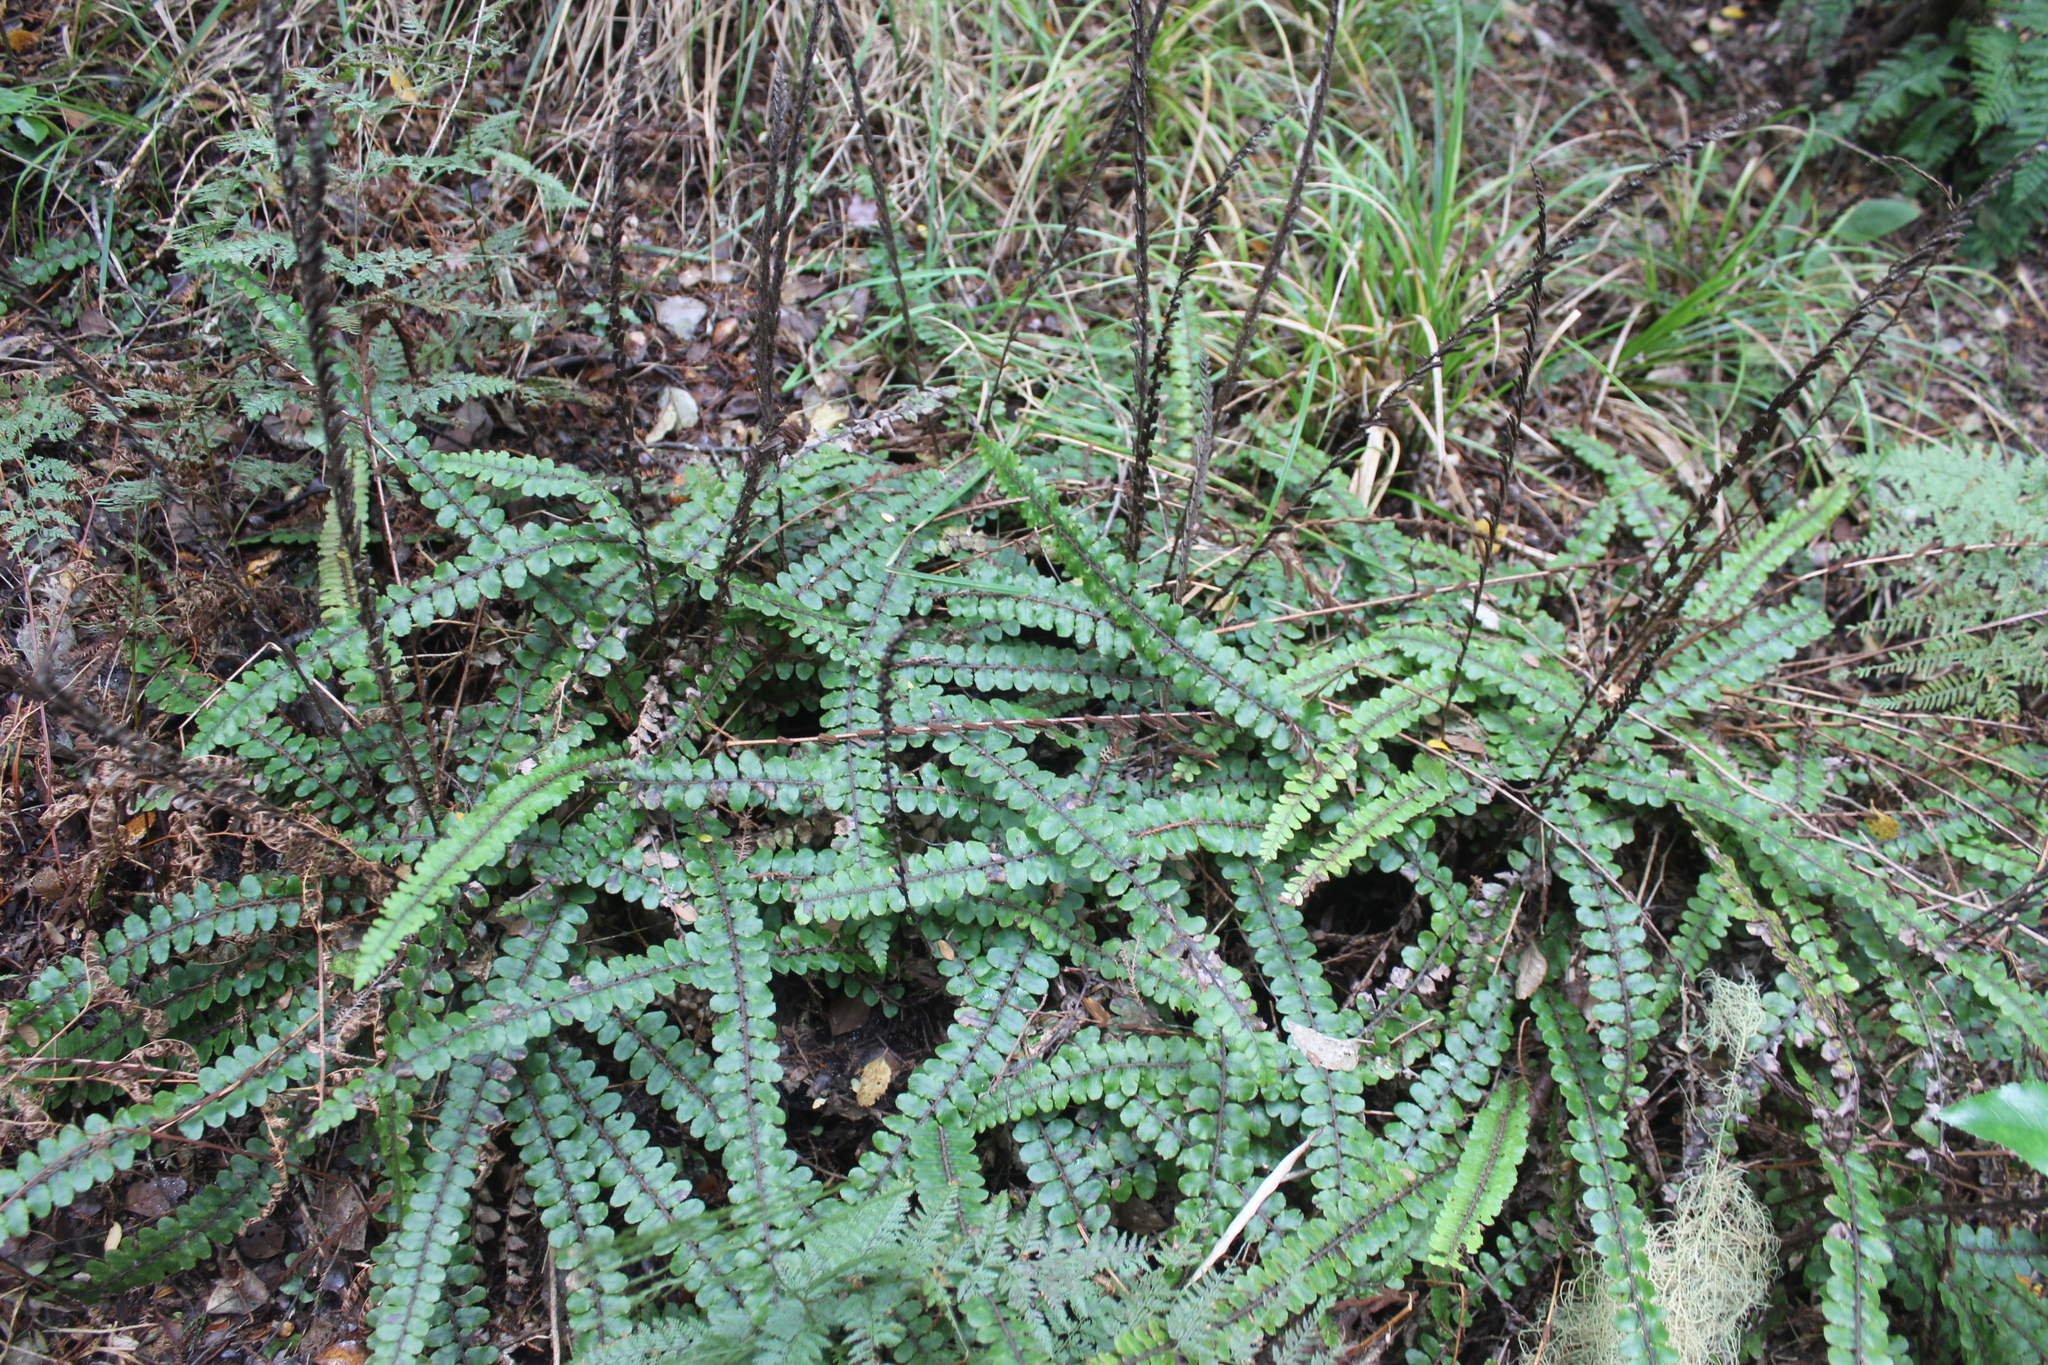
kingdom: Plantae
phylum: Tracheophyta
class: Polypodiopsida
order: Polypodiales
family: Blechnaceae
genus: Cranfillia
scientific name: Cranfillia fluviatilis
